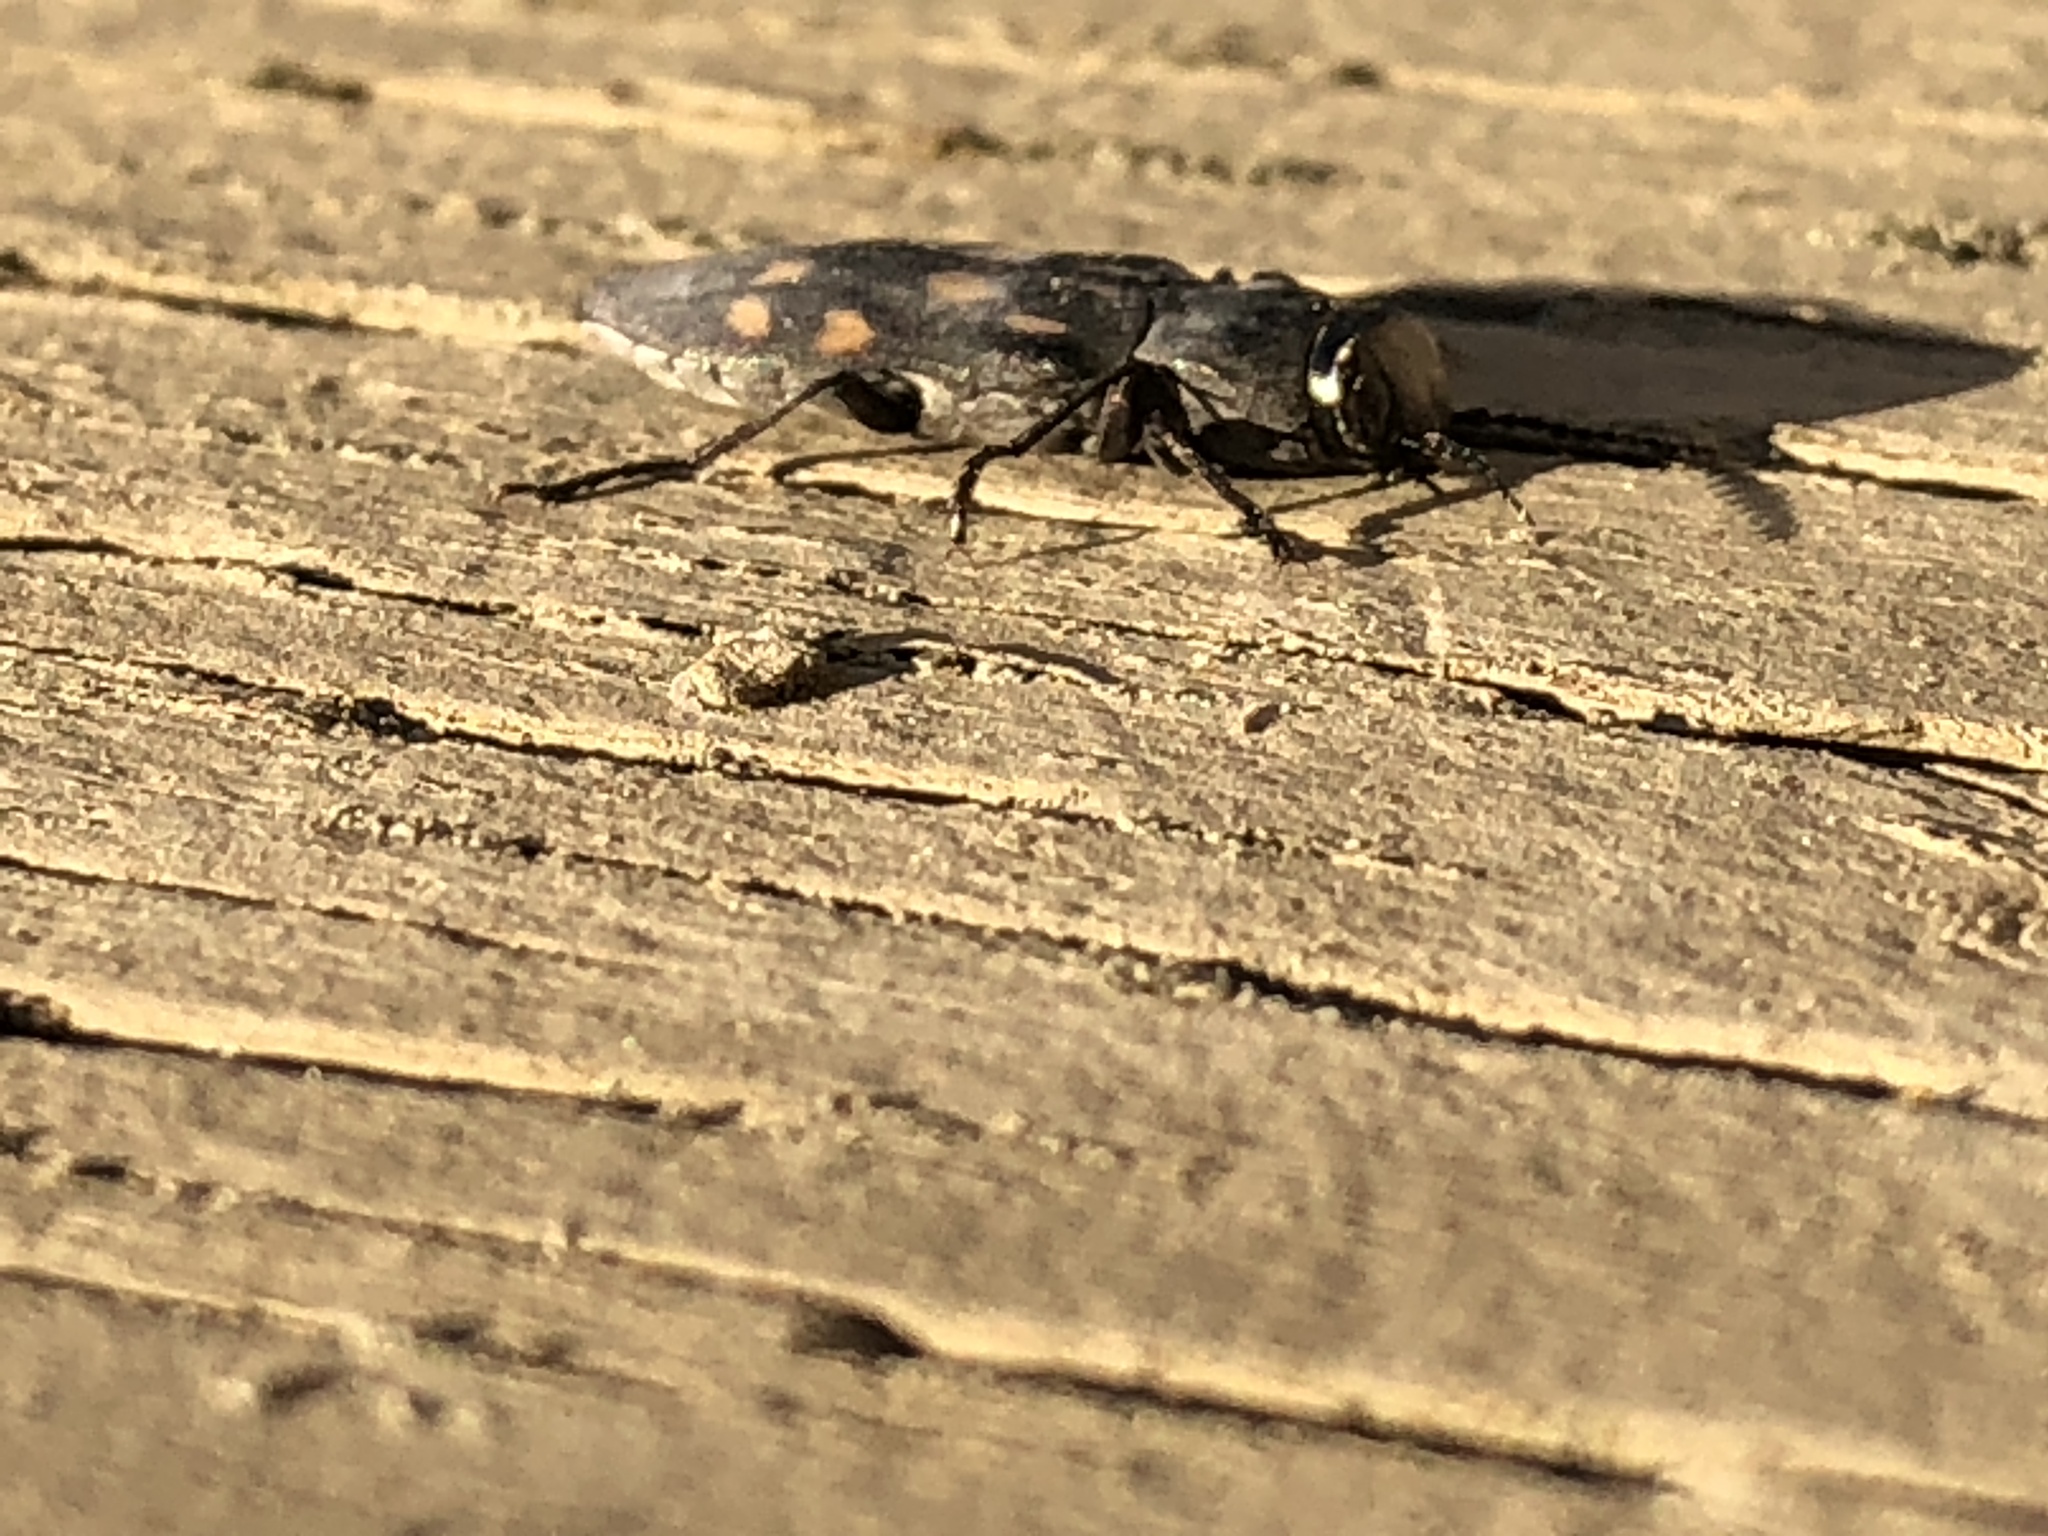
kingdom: Animalia
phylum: Arthropoda
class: Insecta
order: Coleoptera
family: Buprestidae
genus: Melanophila
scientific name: Melanophila consputa
